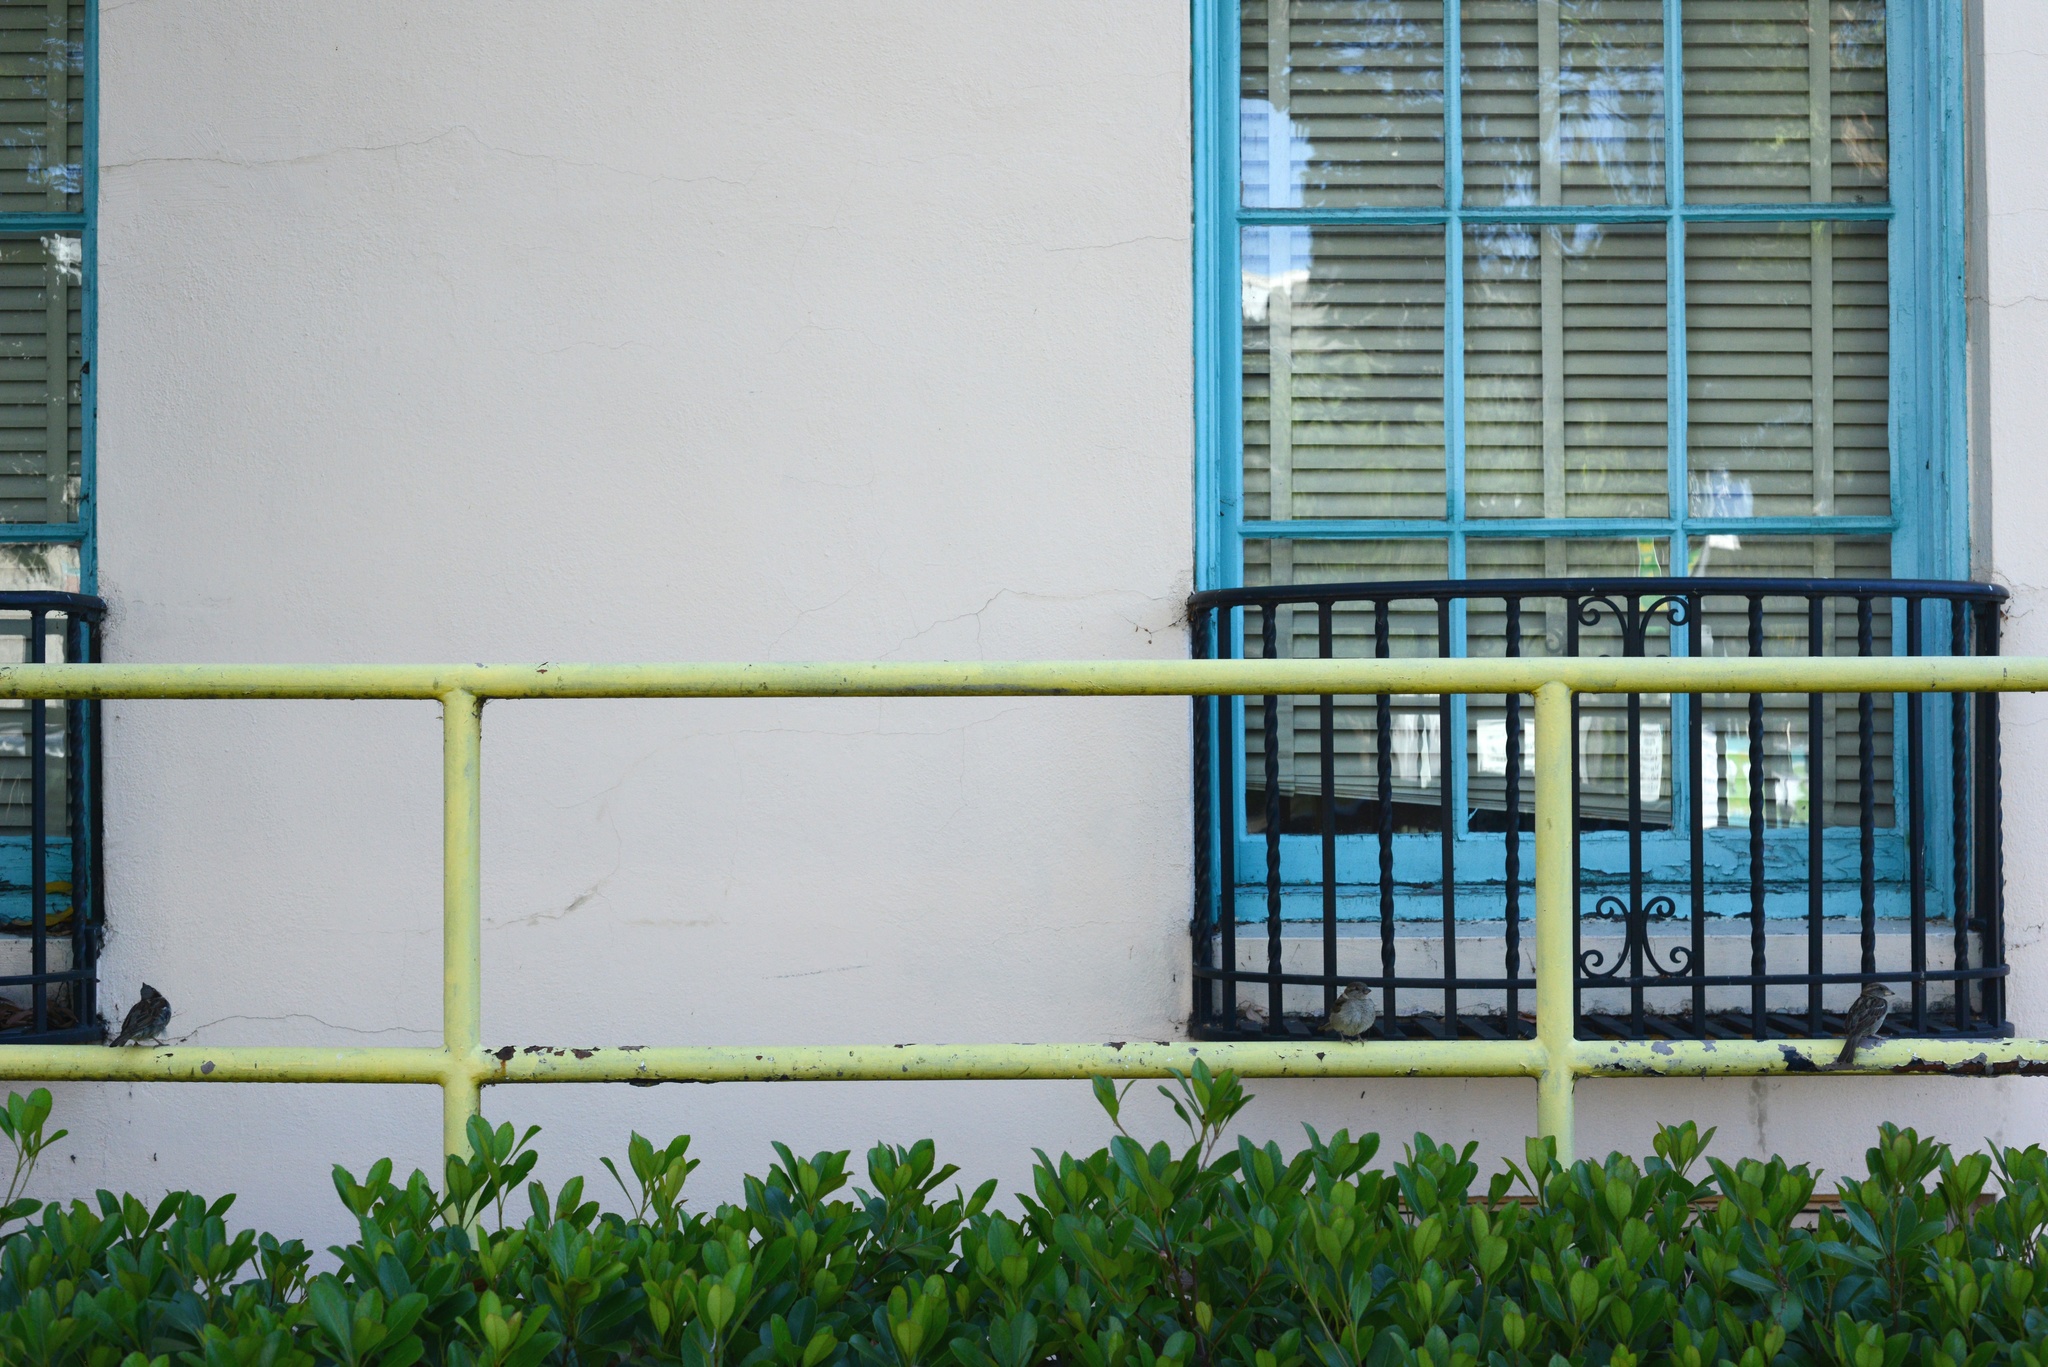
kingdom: Animalia
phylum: Chordata
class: Aves
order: Passeriformes
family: Passeridae
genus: Passer
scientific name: Passer domesticus
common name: House sparrow
